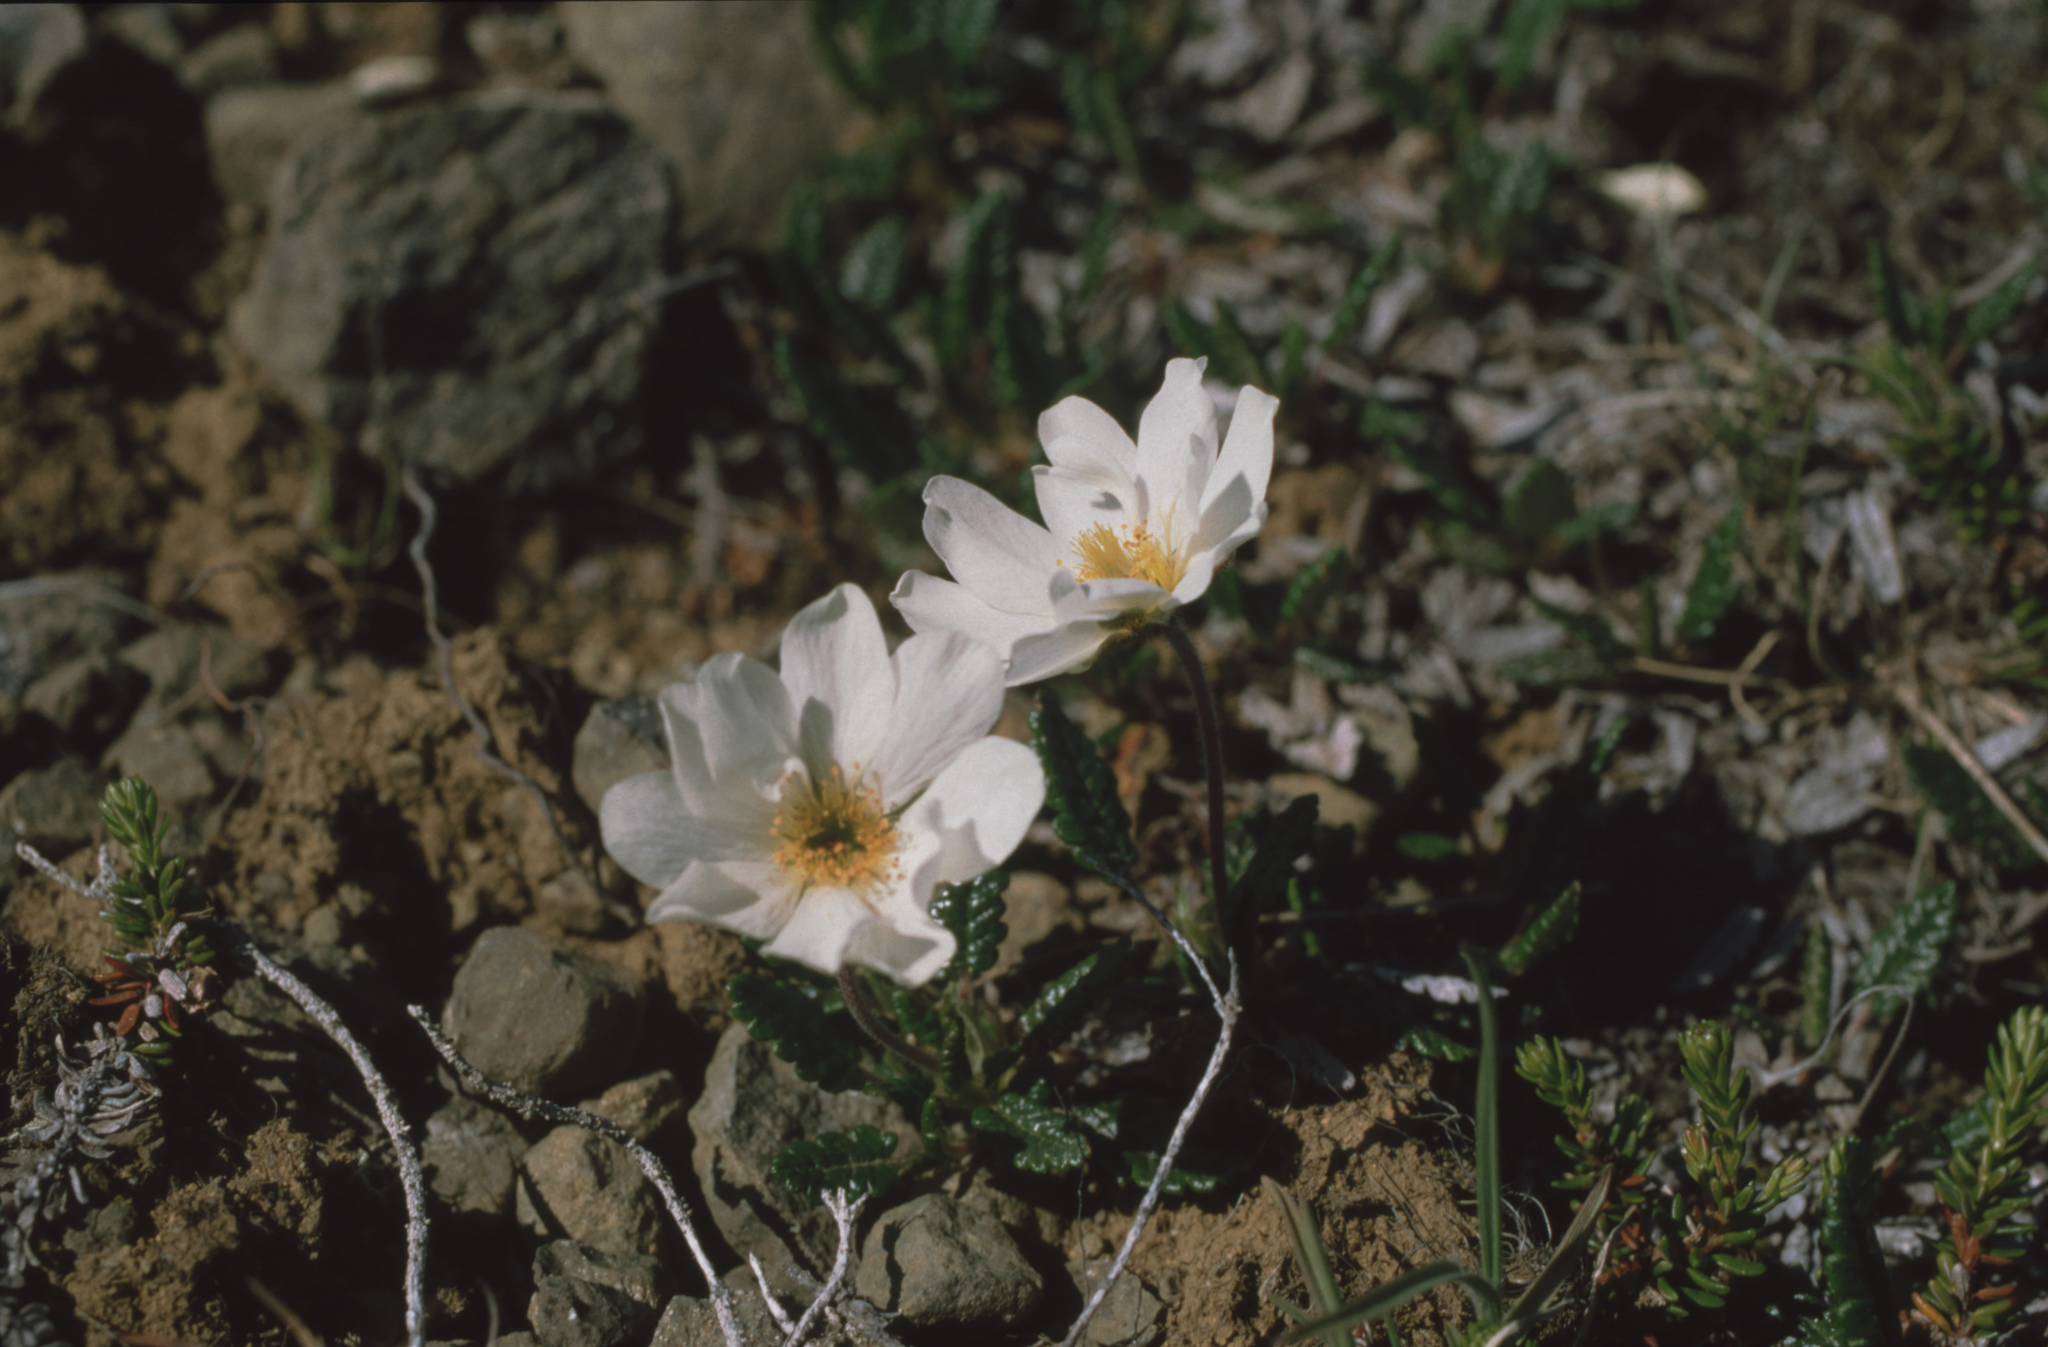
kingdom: Plantae
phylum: Tracheophyta
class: Magnoliopsida
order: Rosales
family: Rosaceae
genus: Dryas
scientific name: Dryas octopetala
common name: Eight-petal mountain-avens
